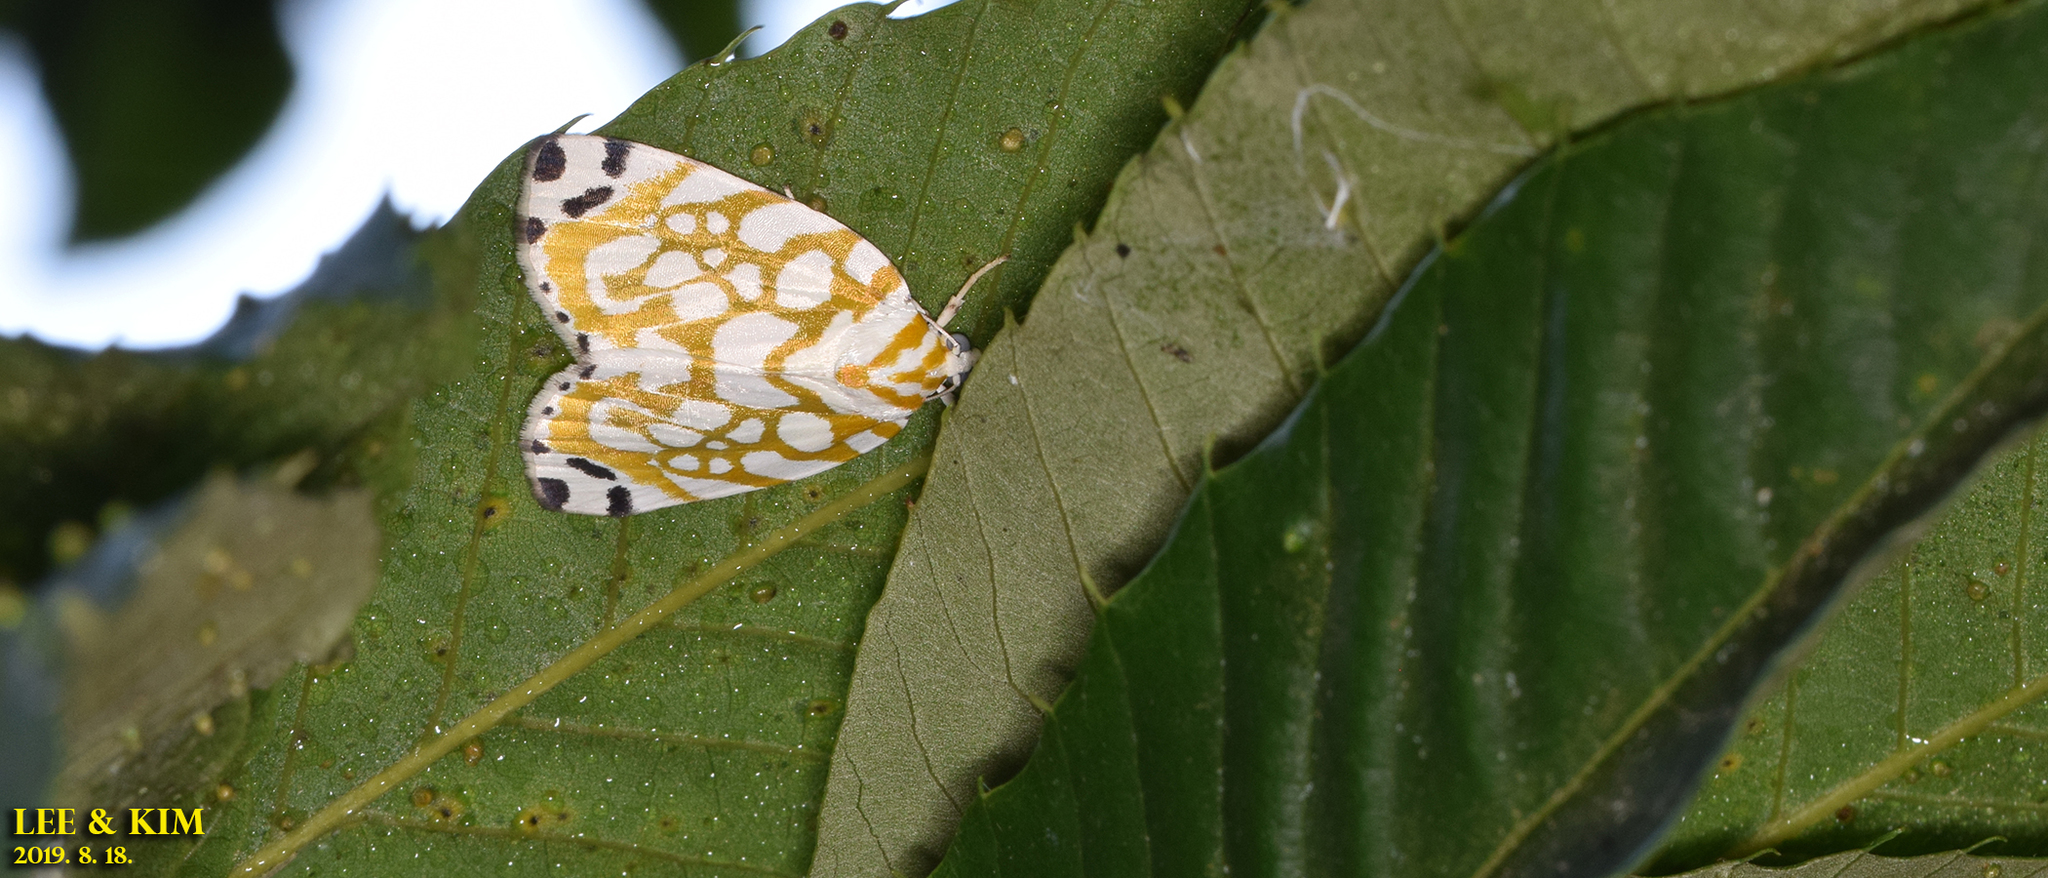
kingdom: Animalia
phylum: Arthropoda
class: Insecta
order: Lepidoptera
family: Nolidae
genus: Sinna
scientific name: Sinna extrema
